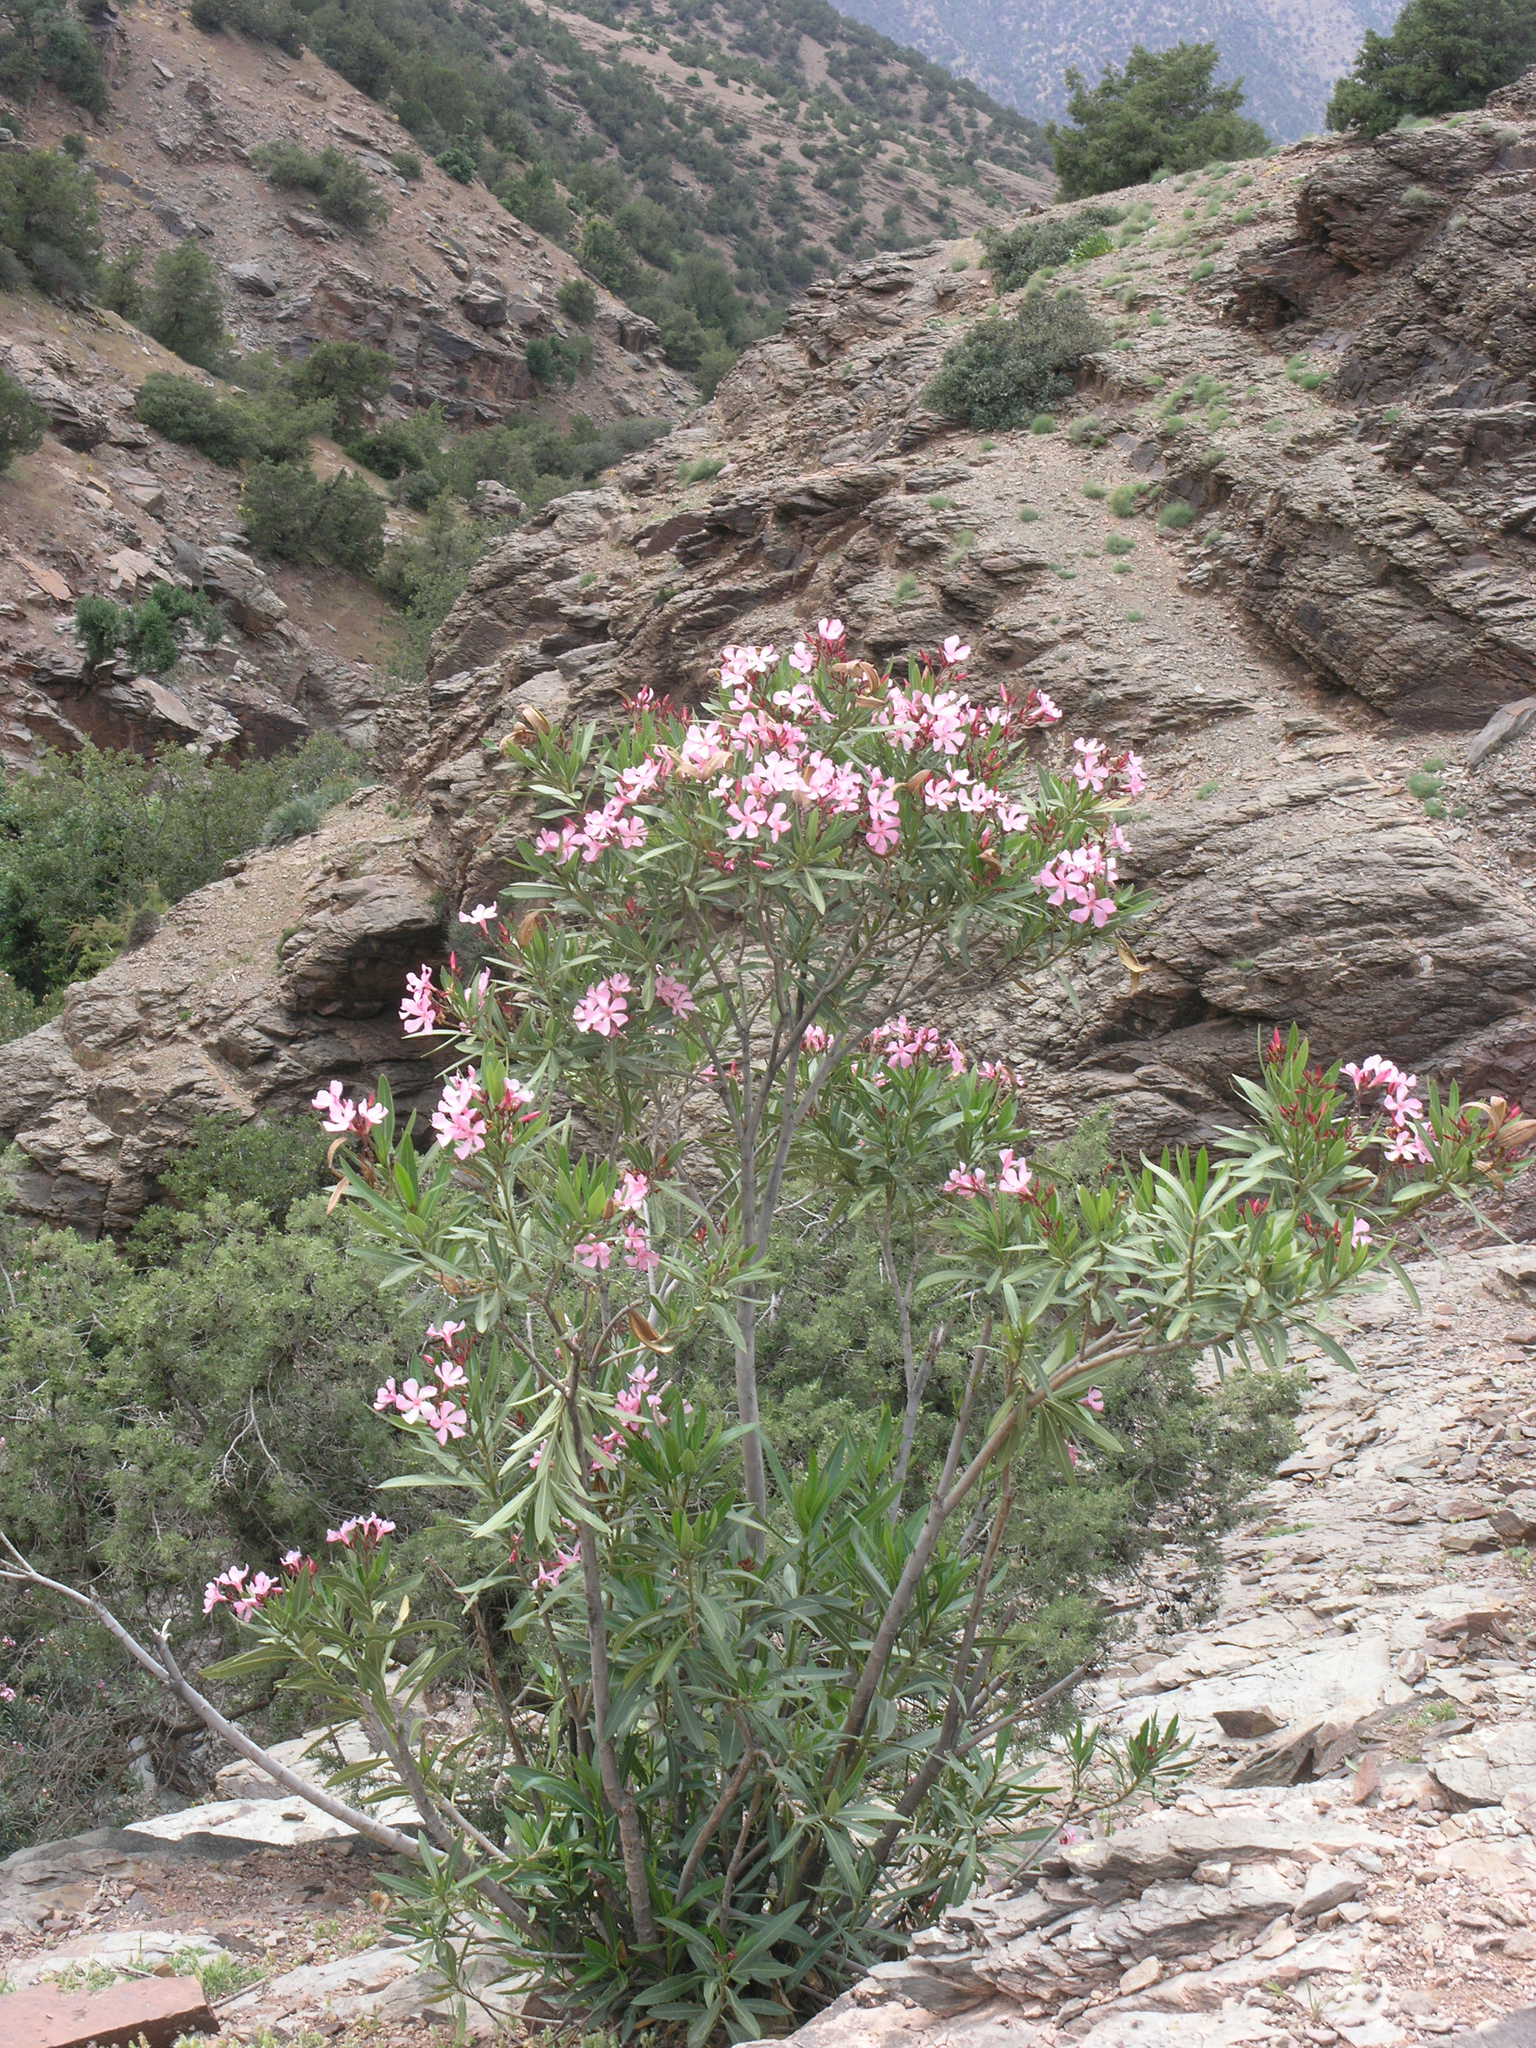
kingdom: Plantae
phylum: Tracheophyta
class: Magnoliopsida
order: Gentianales
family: Apocynaceae
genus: Nerium
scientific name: Nerium oleander
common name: Oleander
